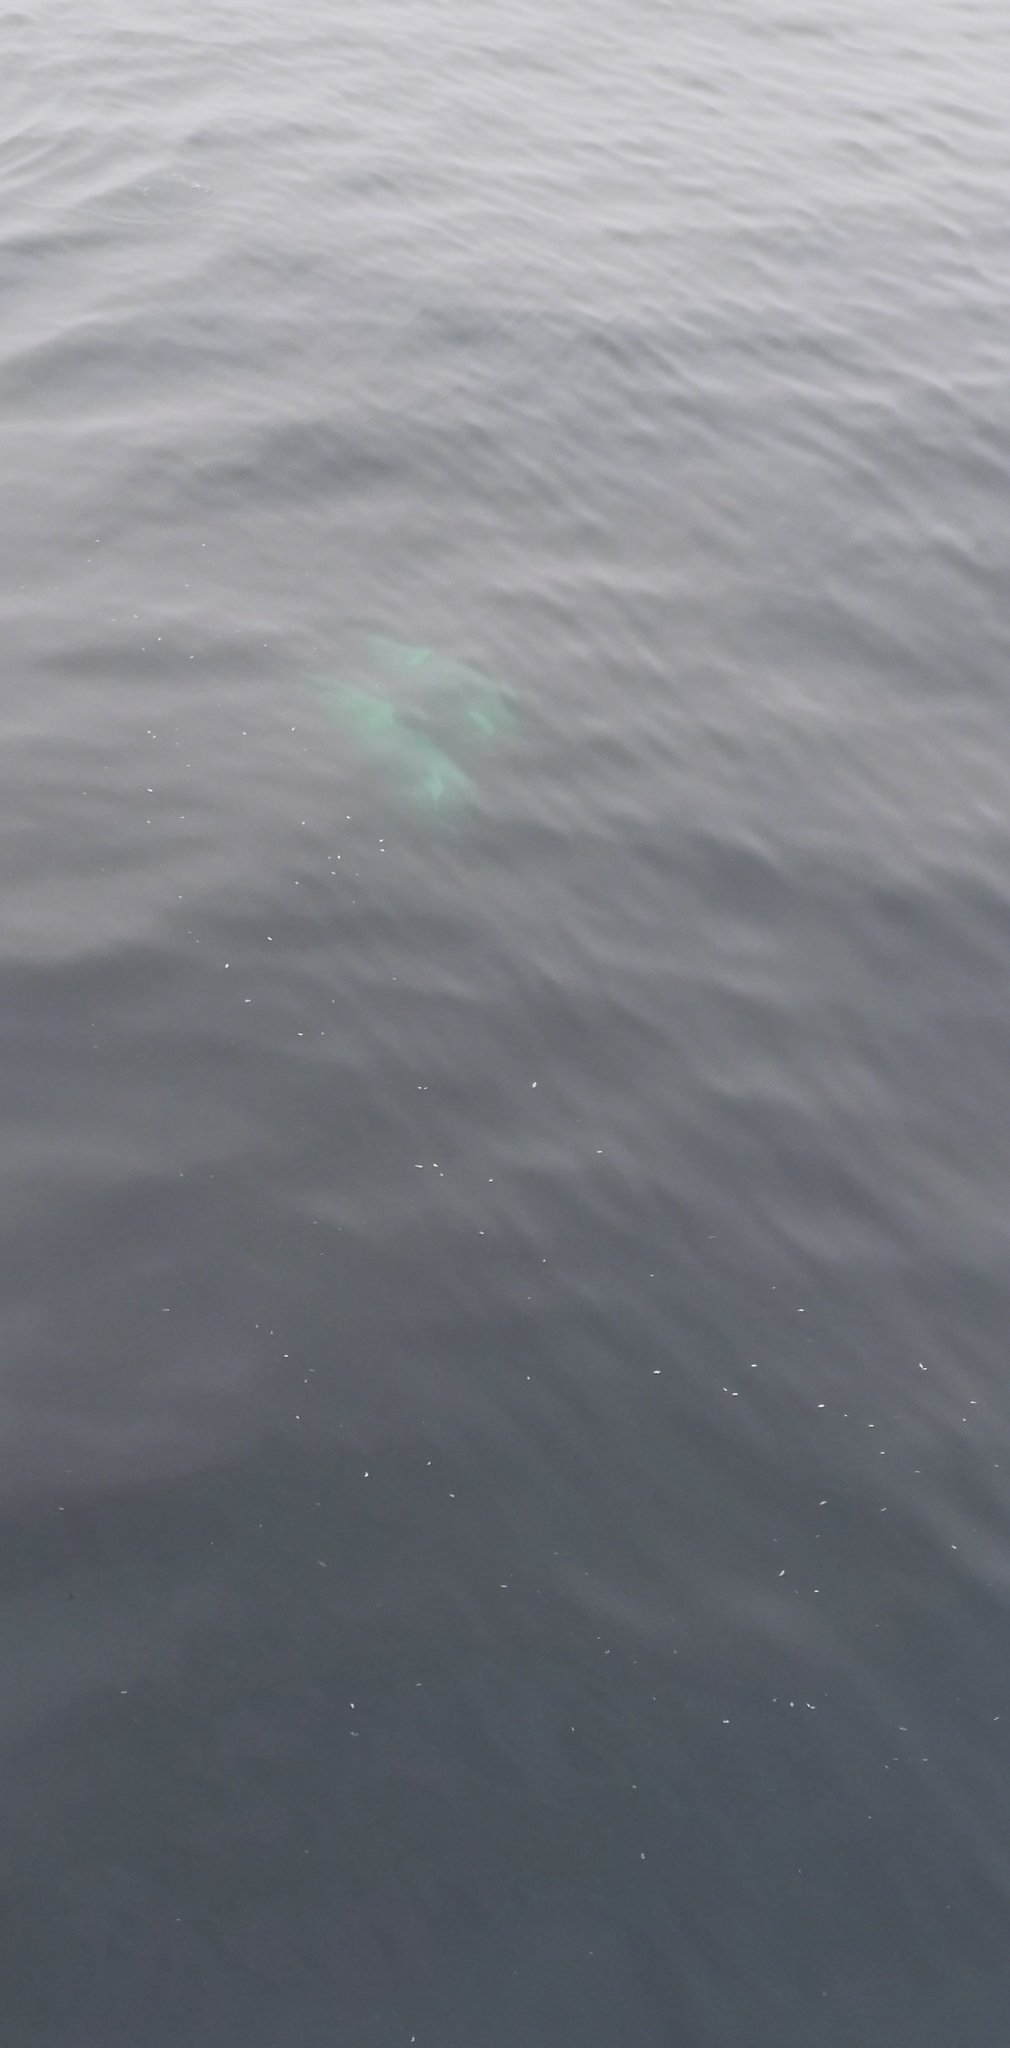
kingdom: Animalia
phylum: Chordata
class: Mammalia
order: Cetacea
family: Delphinidae
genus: Orcinus
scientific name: Orcinus orca
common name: Killer whale
